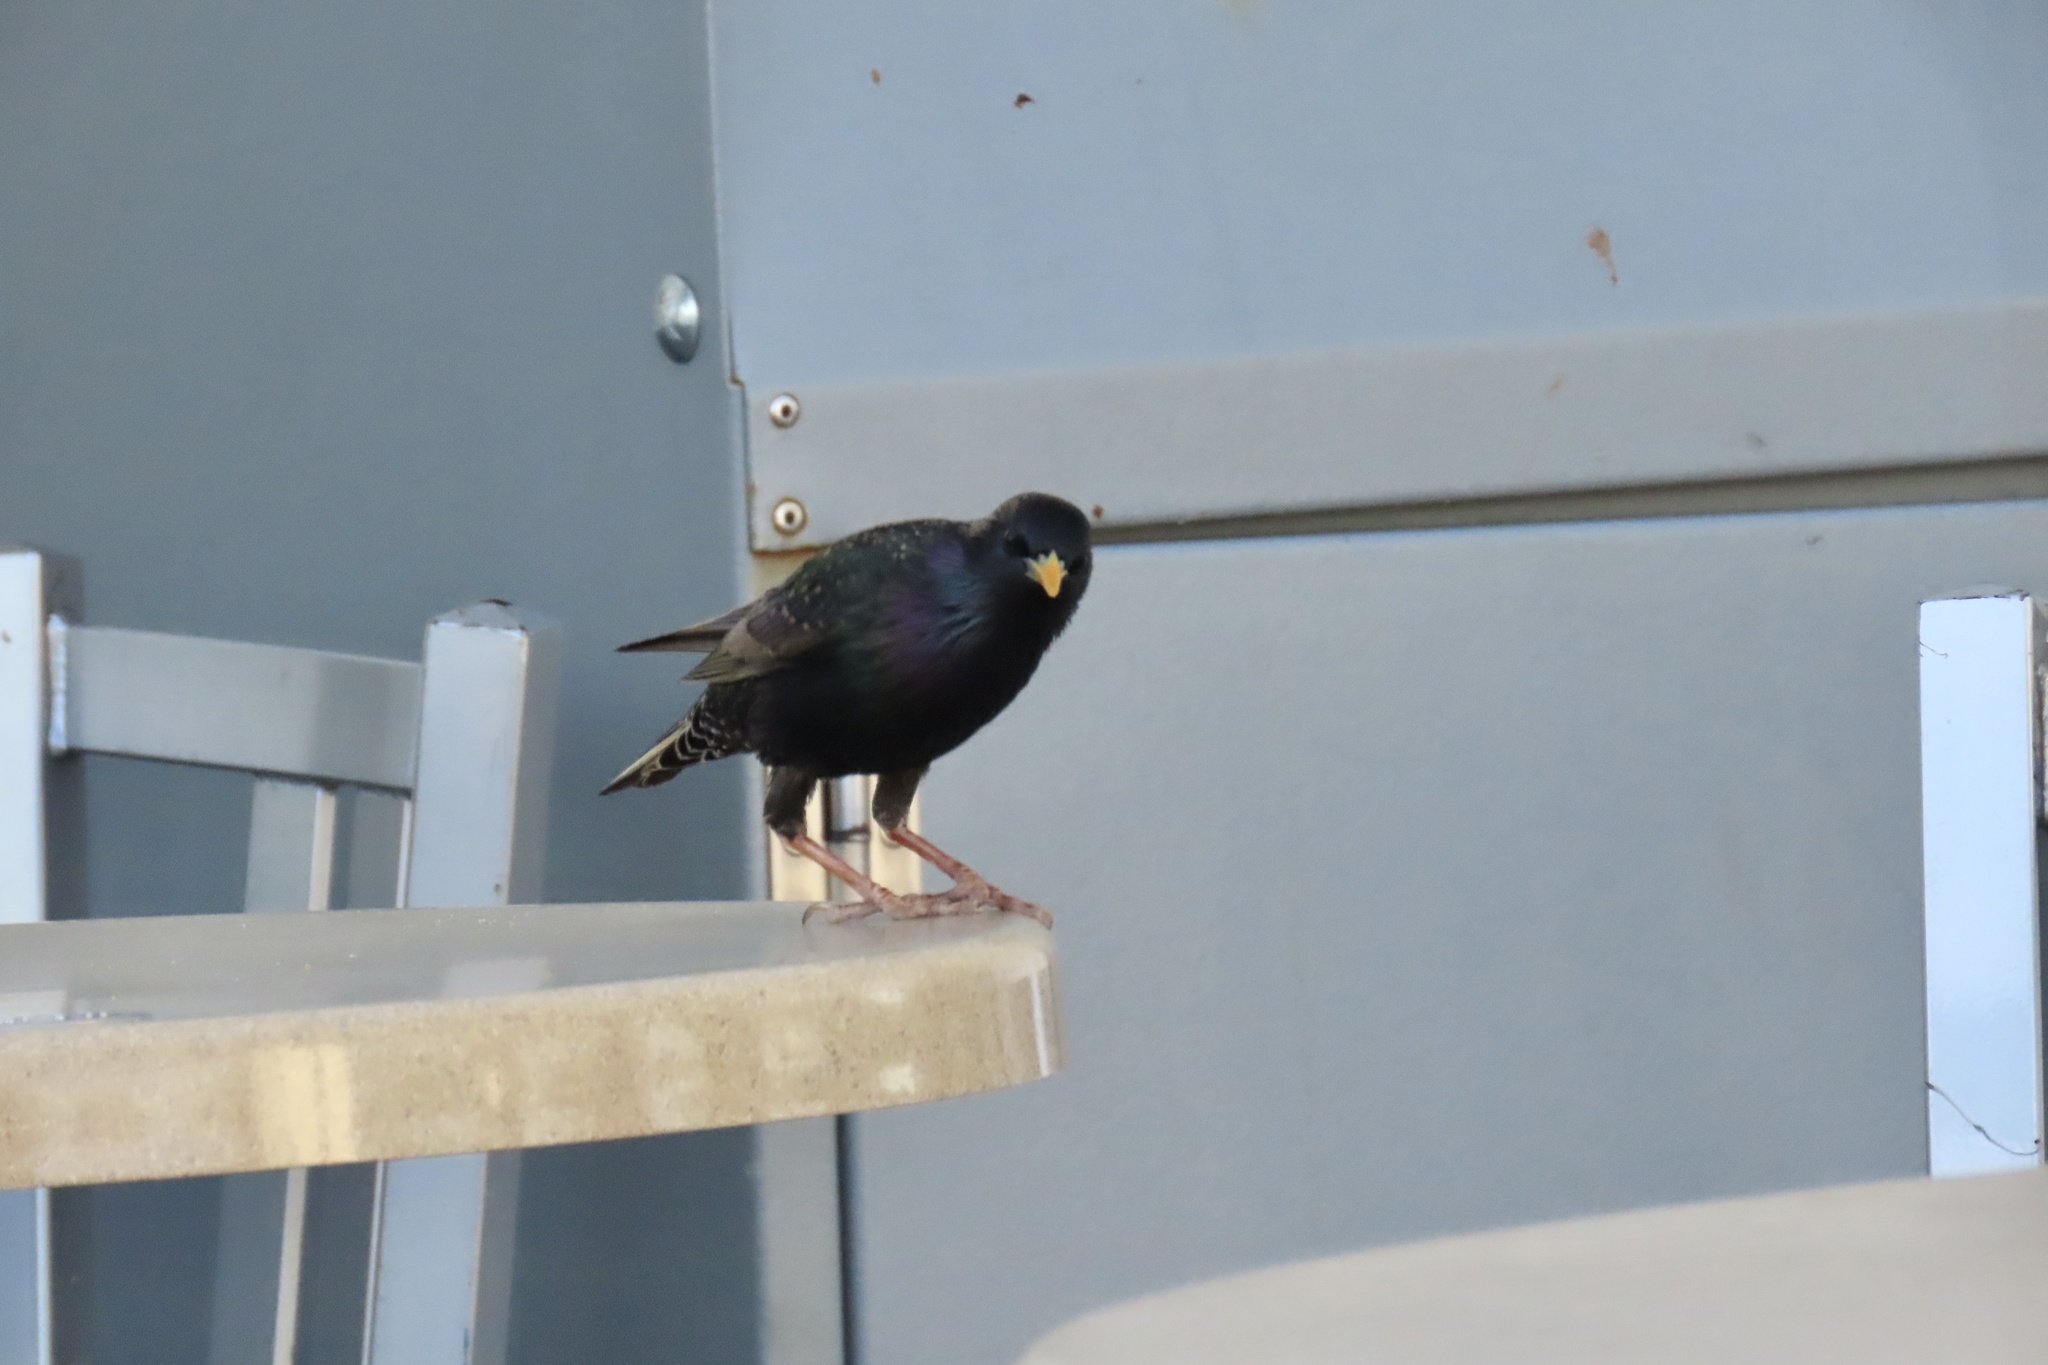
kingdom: Animalia
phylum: Chordata
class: Aves
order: Passeriformes
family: Sturnidae
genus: Sturnus
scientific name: Sturnus vulgaris
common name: Common starling
